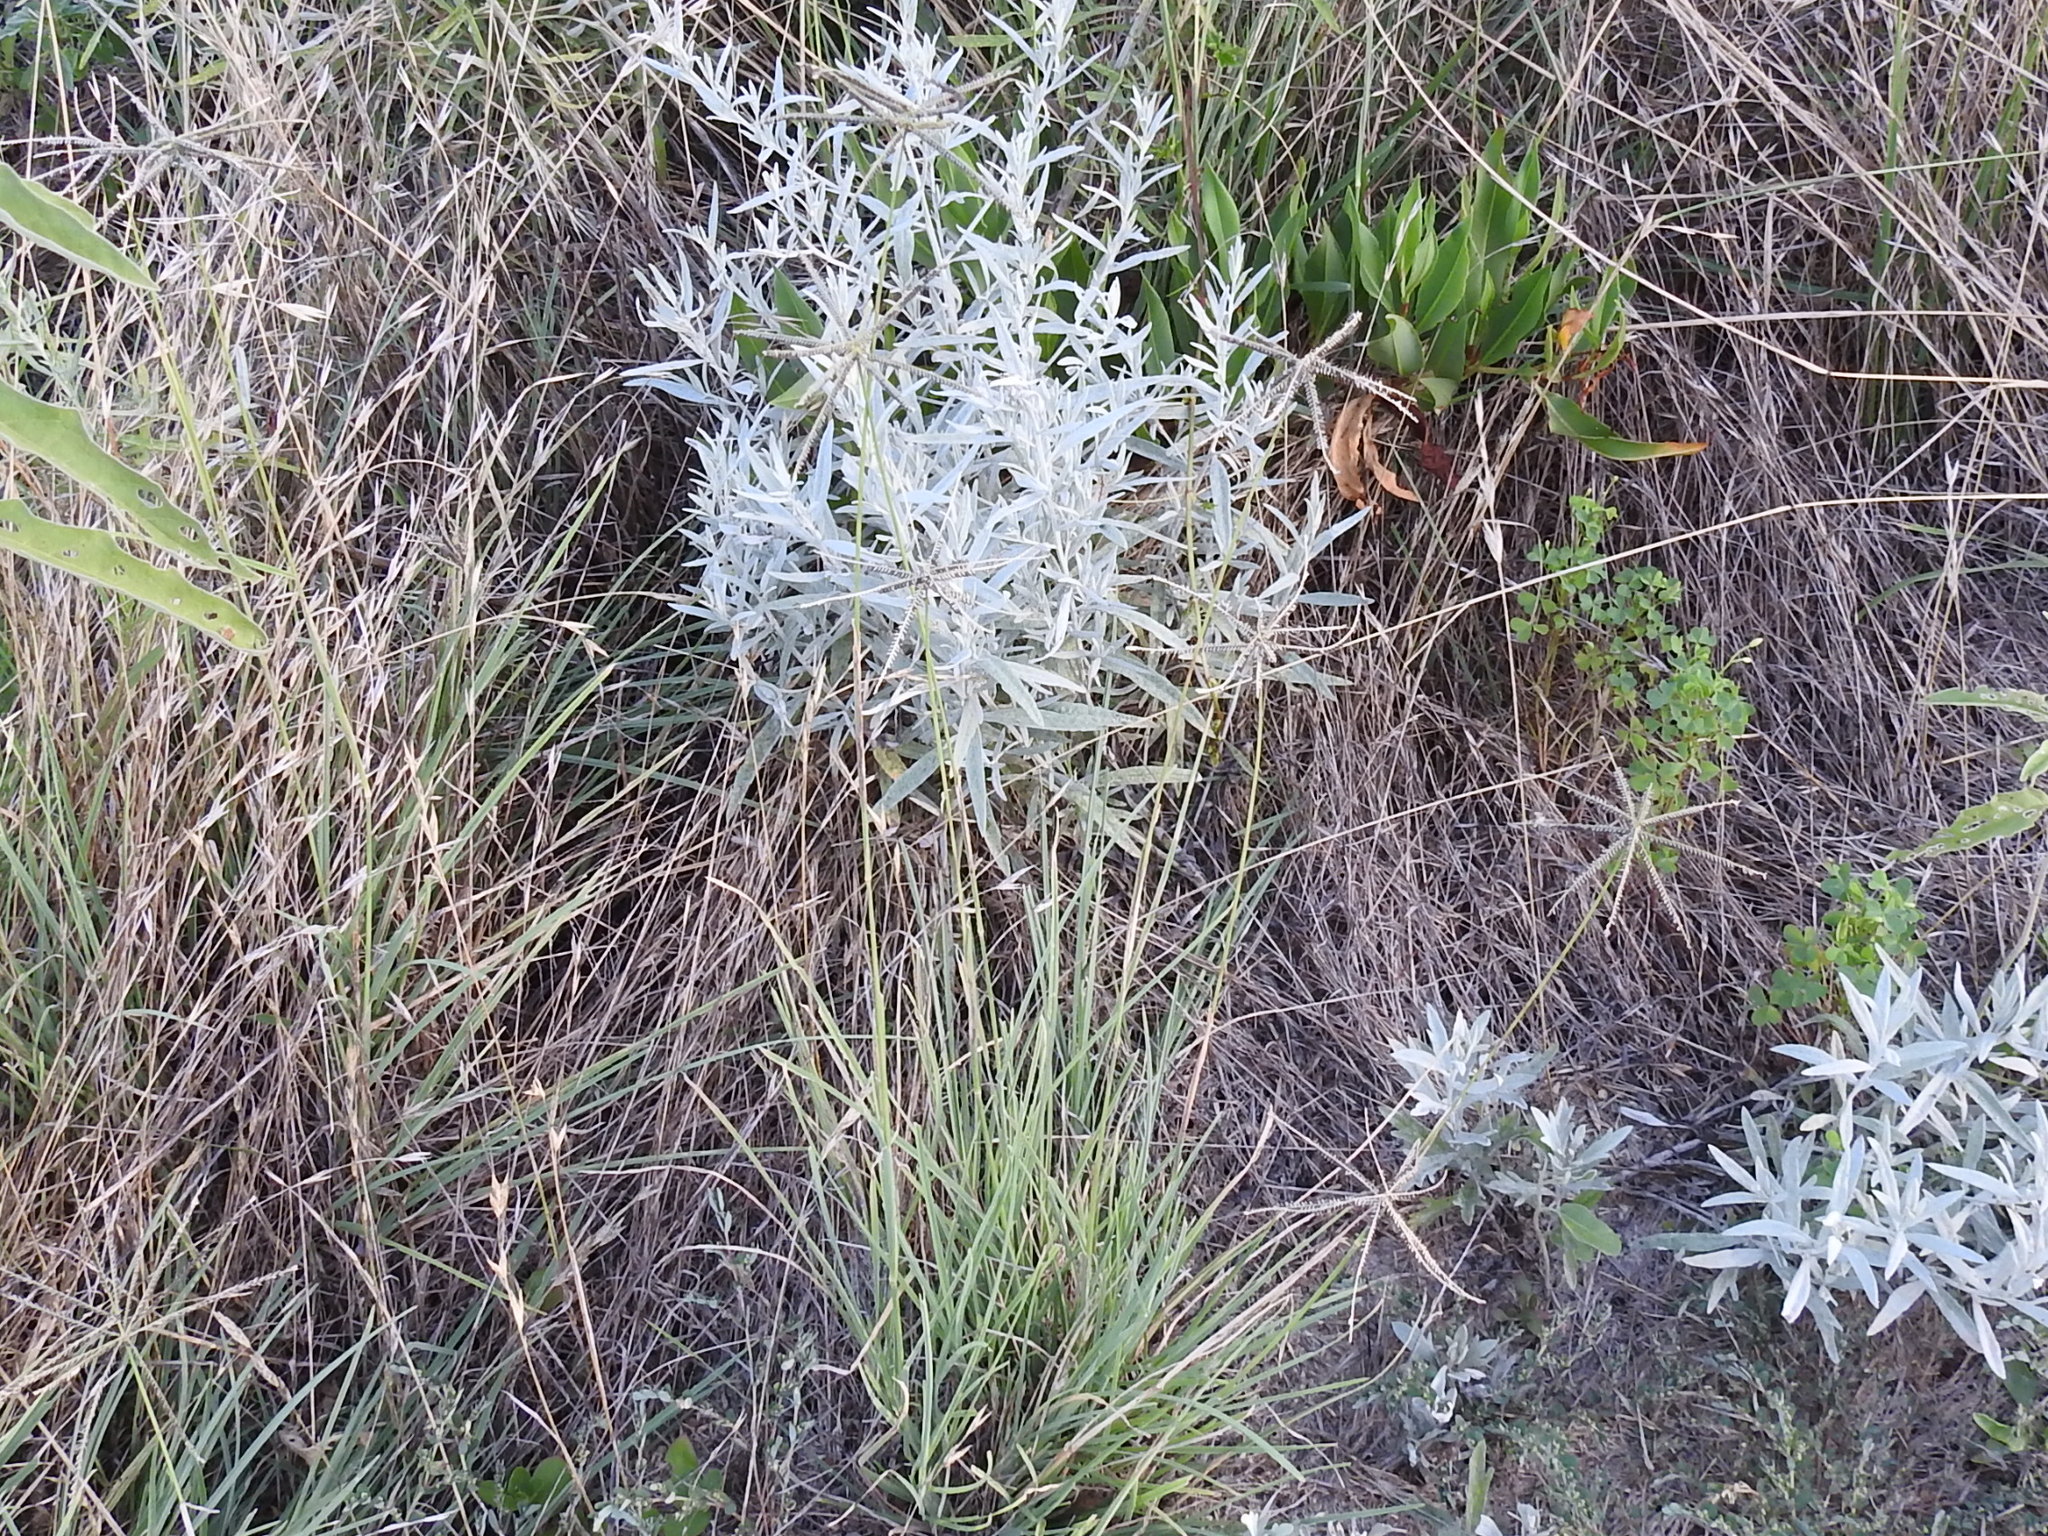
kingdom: Plantae
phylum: Tracheophyta
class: Liliopsida
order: Poales
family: Poaceae
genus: Chloris
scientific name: Chloris cucullata
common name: Hooded windmill grass
